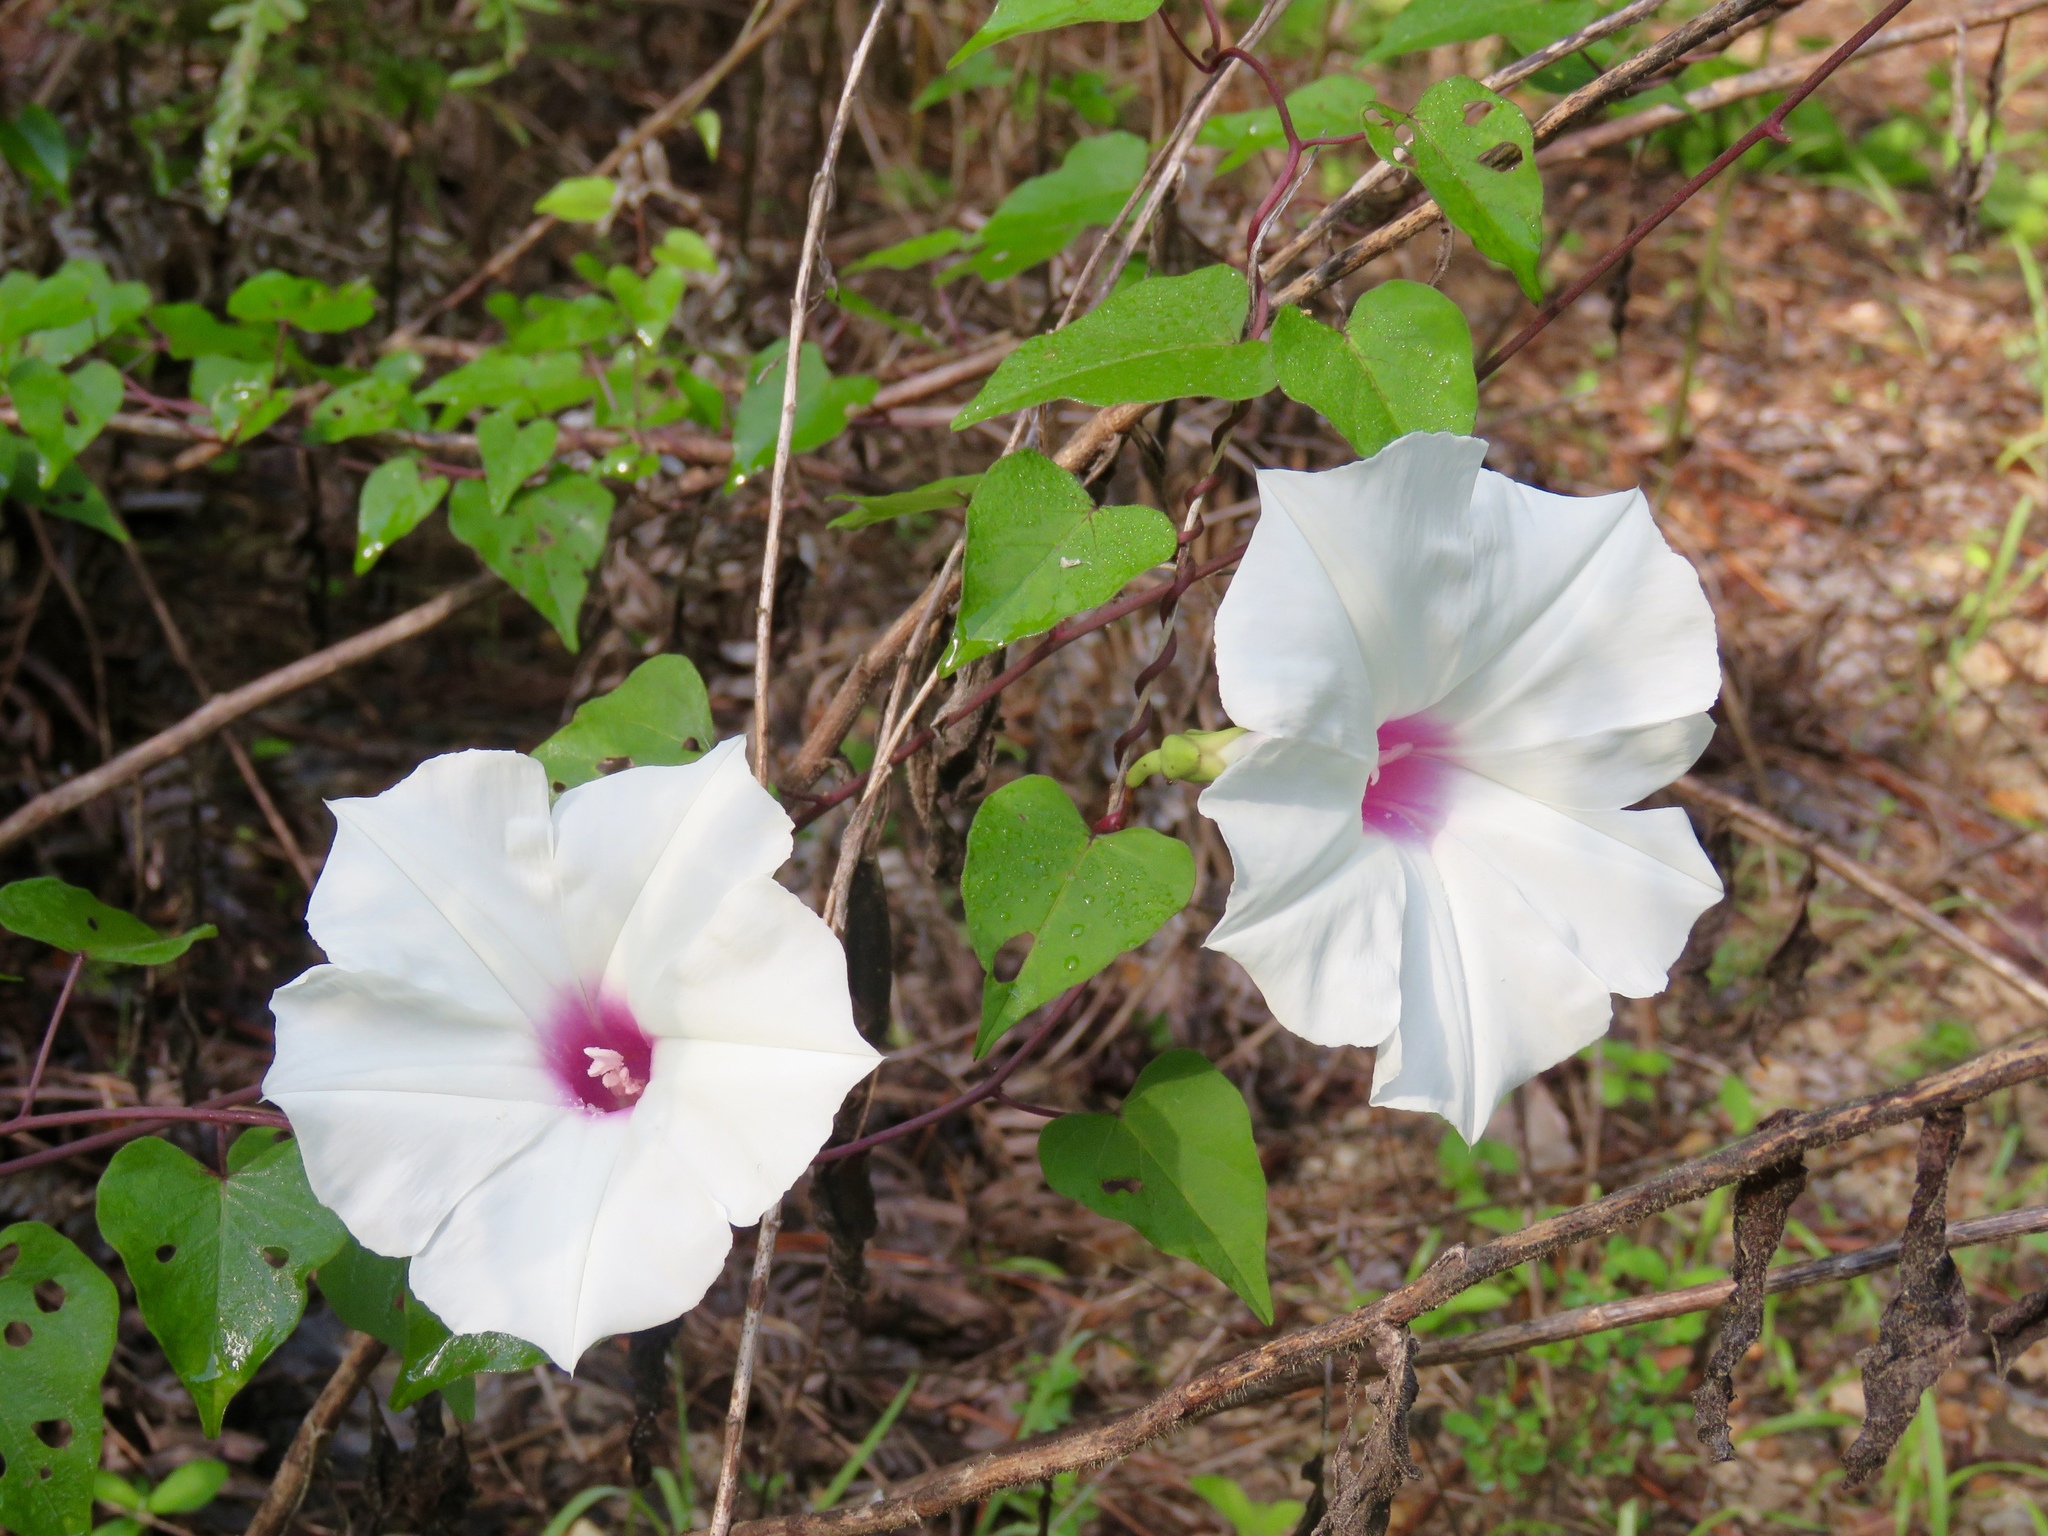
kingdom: Plantae
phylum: Tracheophyta
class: Magnoliopsida
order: Solanales
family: Convolvulaceae
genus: Ipomoea
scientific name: Ipomoea pandurata
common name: Man-of-the-earth
